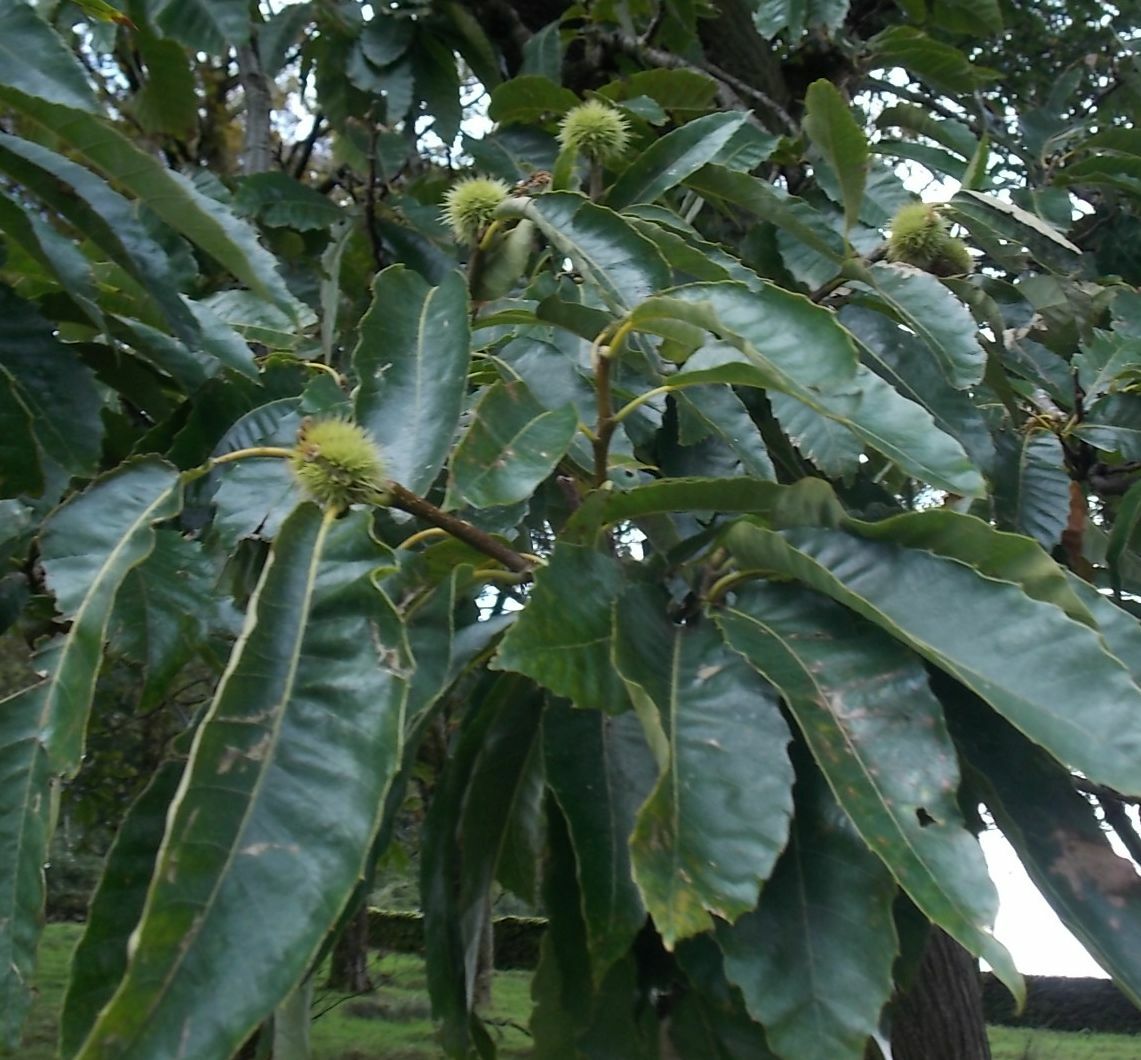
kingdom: Plantae
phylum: Tracheophyta
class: Magnoliopsida
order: Fagales
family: Fagaceae
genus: Castanea
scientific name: Castanea sativa
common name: Sweet chestnut
